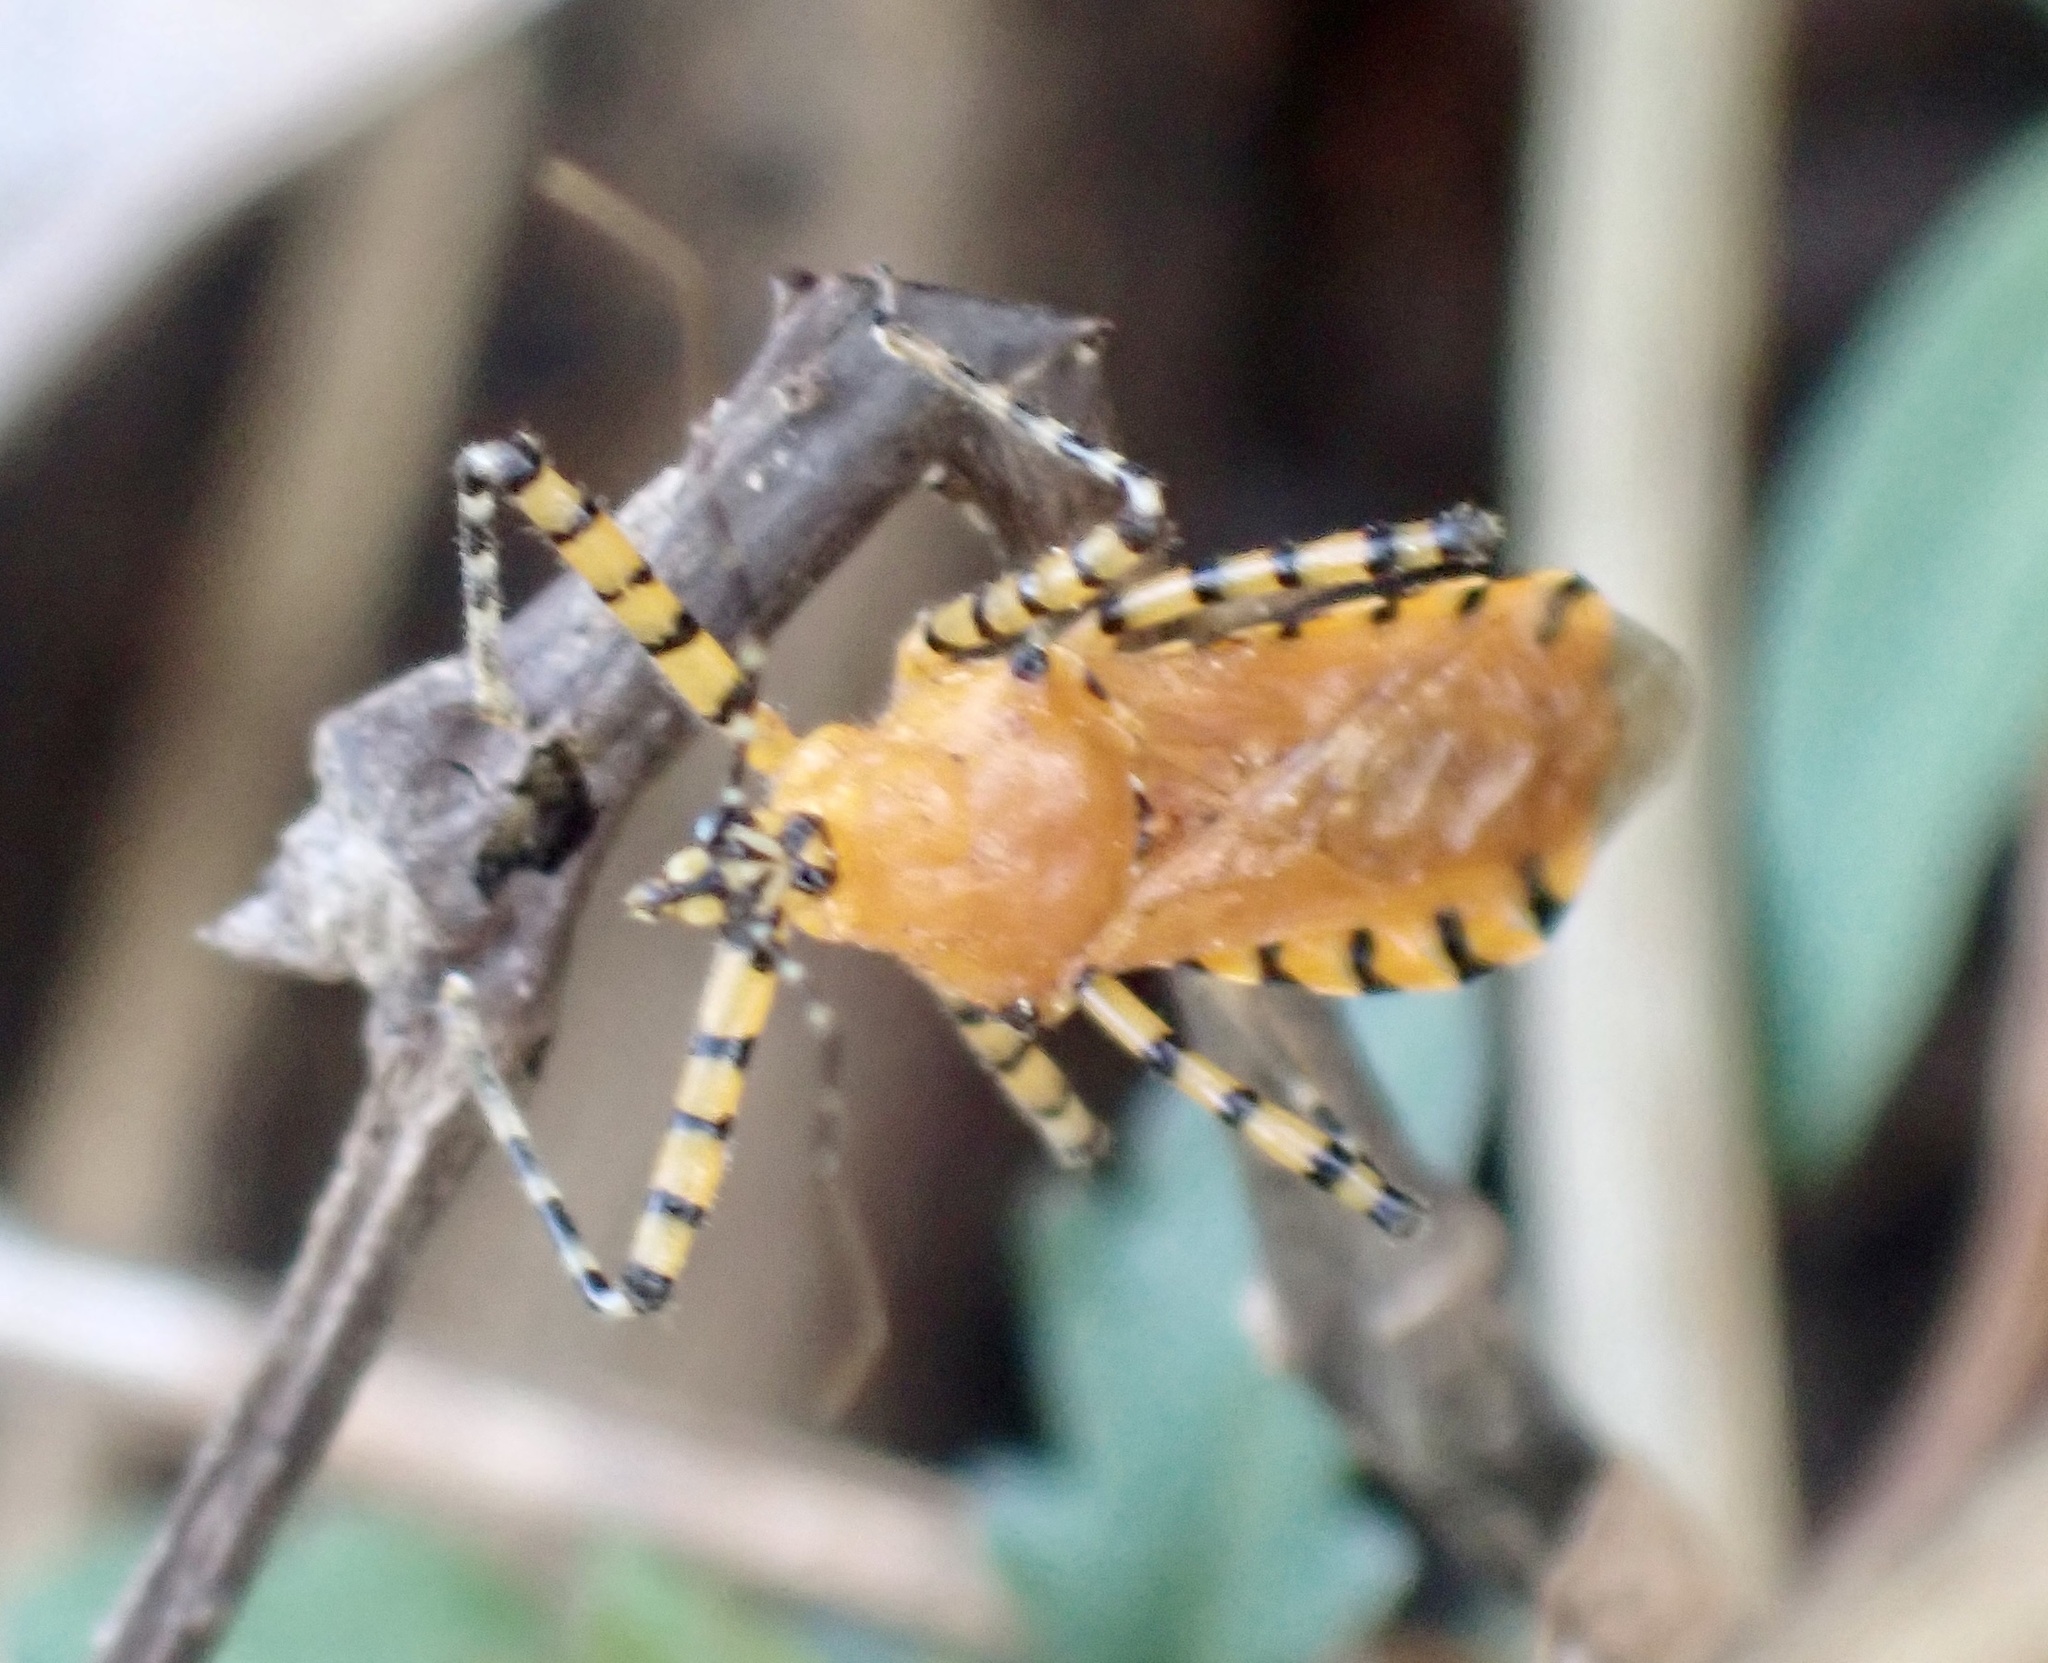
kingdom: Animalia
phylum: Arthropoda
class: Insecta
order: Hemiptera
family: Reduviidae
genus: Pselliopus
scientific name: Pselliopus barberi
